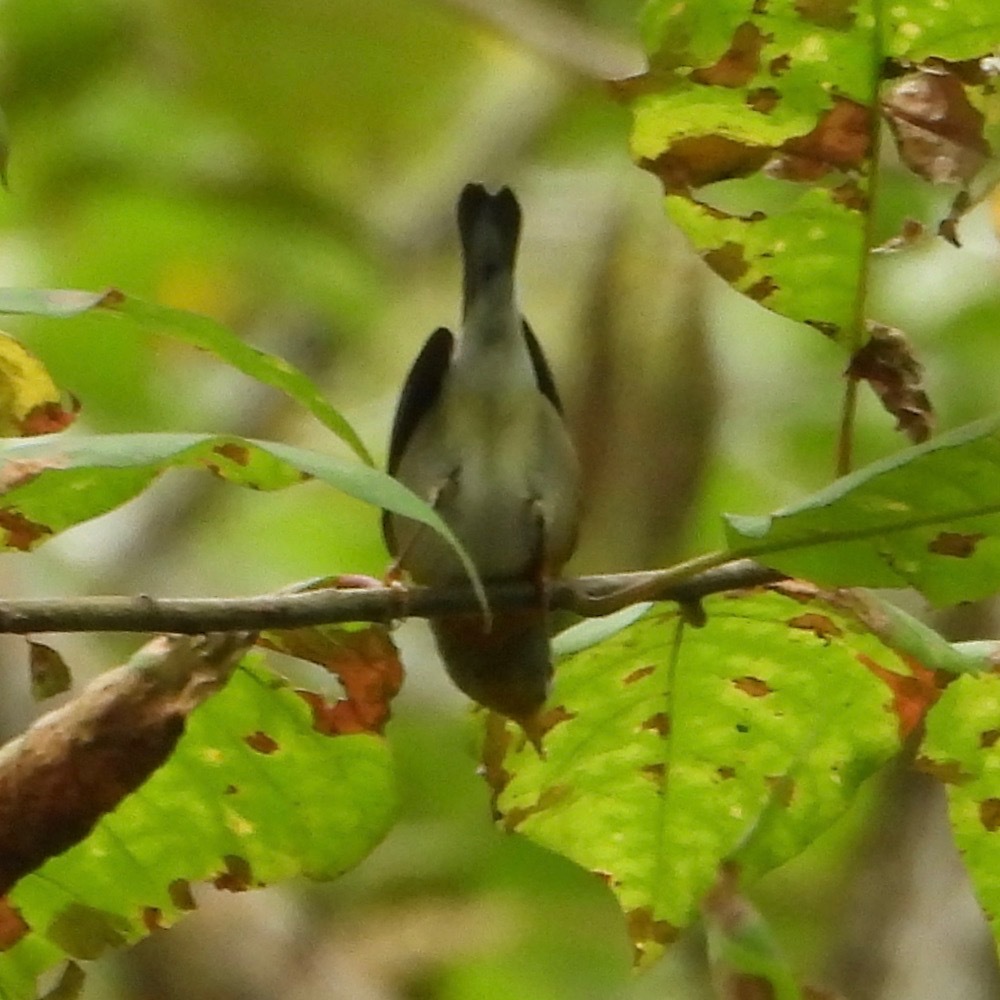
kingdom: Animalia
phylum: Chordata
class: Aves
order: Passeriformes
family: Parulidae
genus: Setophaga
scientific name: Setophaga americana
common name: Northern parula
